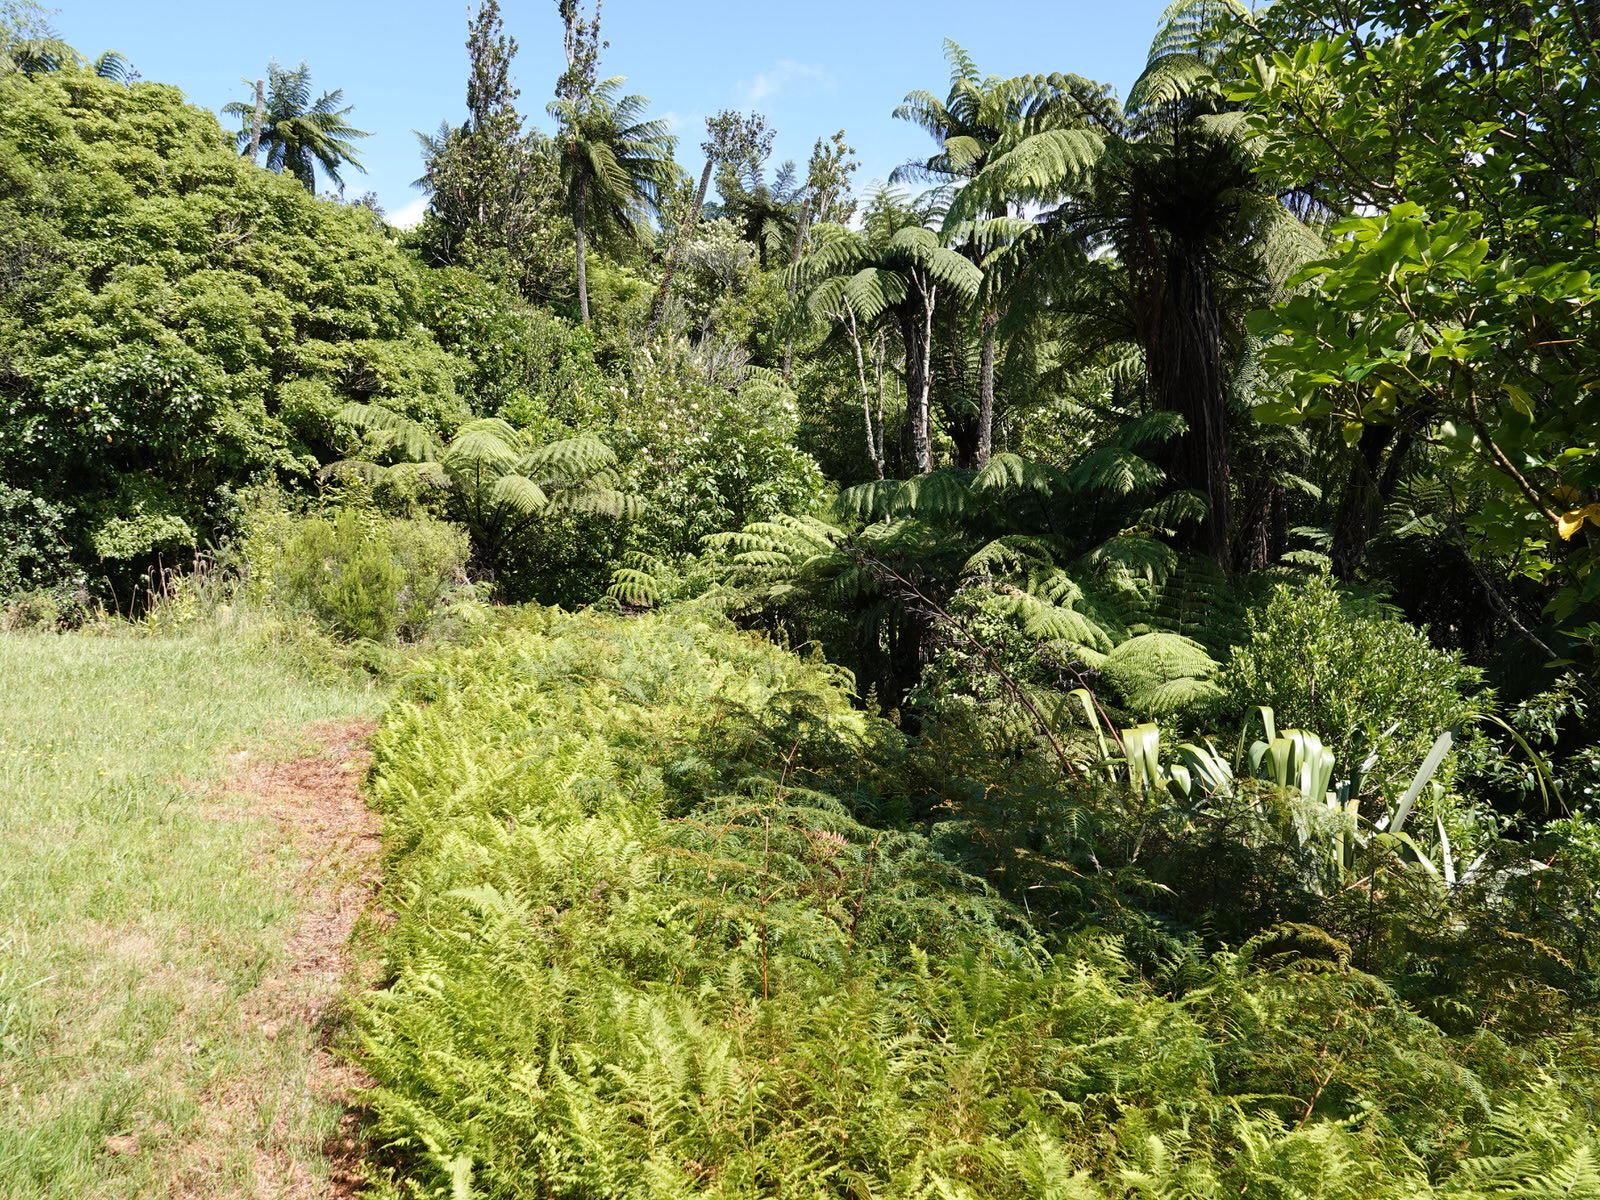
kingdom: Plantae
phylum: Tracheophyta
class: Polypodiopsida
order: Polypodiales
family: Dennstaedtiaceae
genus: Paesia
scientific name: Paesia scaberula
